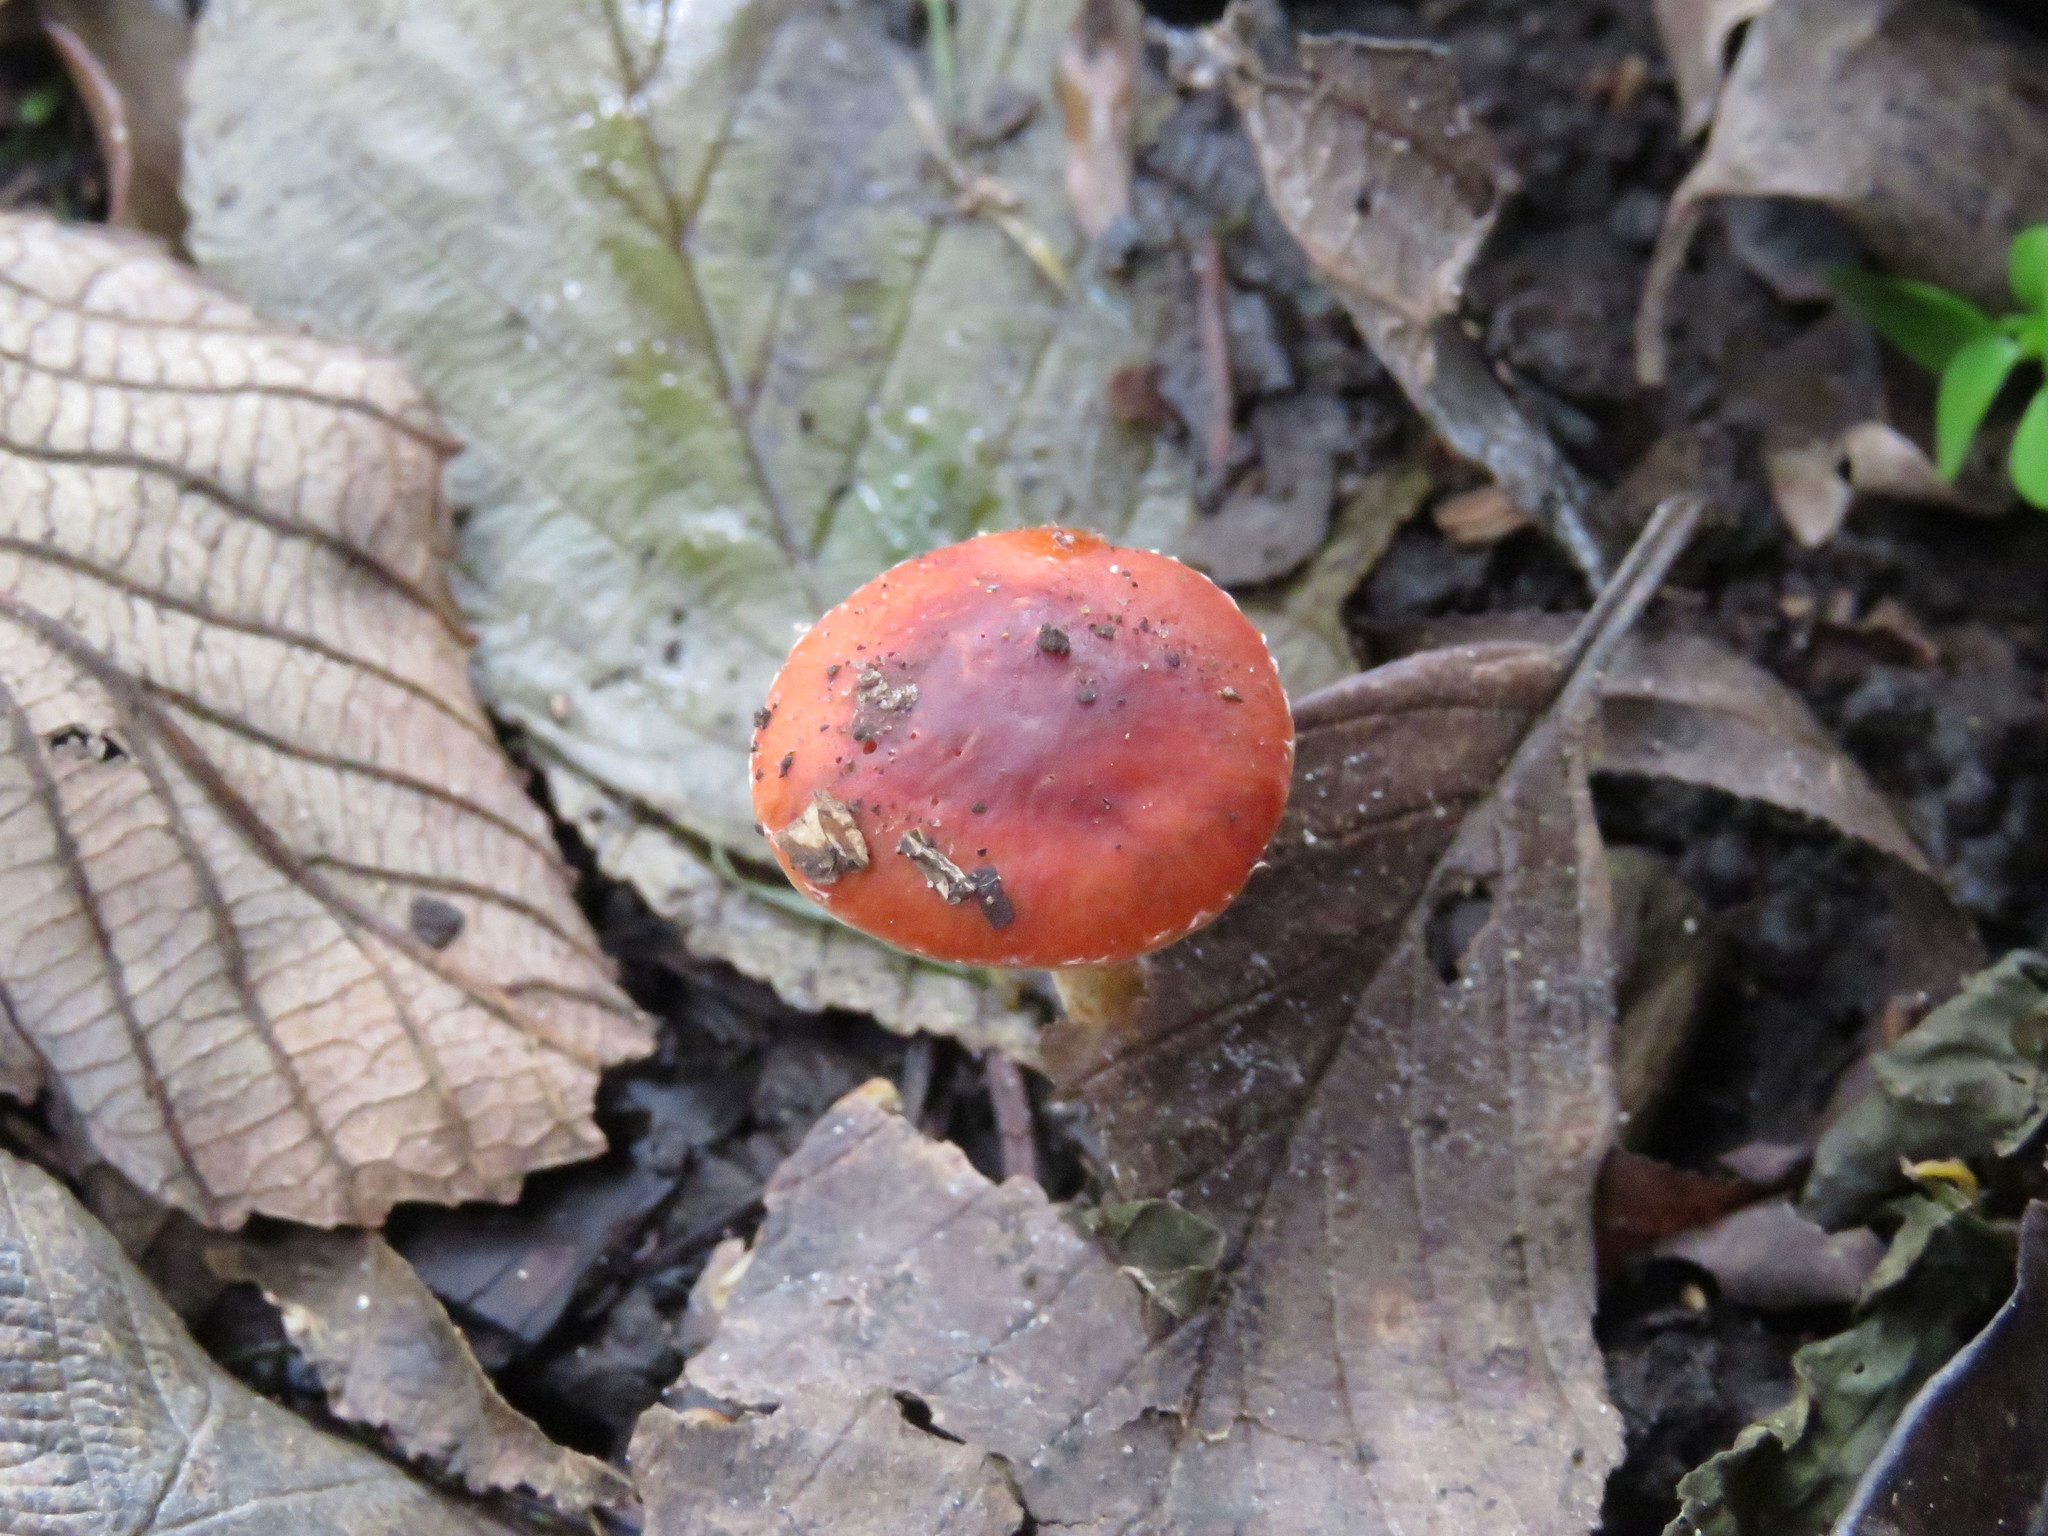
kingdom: Fungi
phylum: Basidiomycota
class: Agaricomycetes
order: Agaricales
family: Strophariaceae
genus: Leratiomyces
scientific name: Leratiomyces ceres
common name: Redlead roundhead
